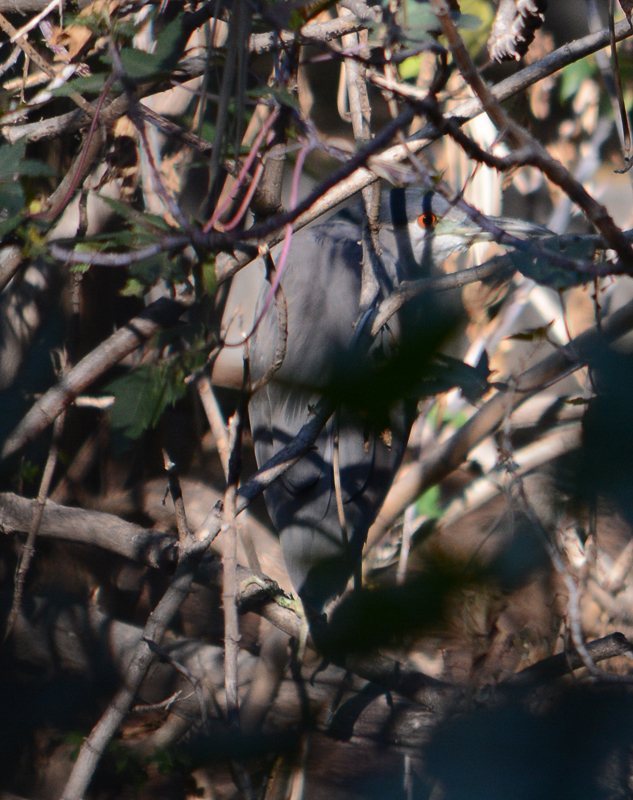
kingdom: Animalia
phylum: Chordata
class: Aves
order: Pelecaniformes
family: Ardeidae
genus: Nycticorax
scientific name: Nycticorax nycticorax
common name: Black-crowned night heron
